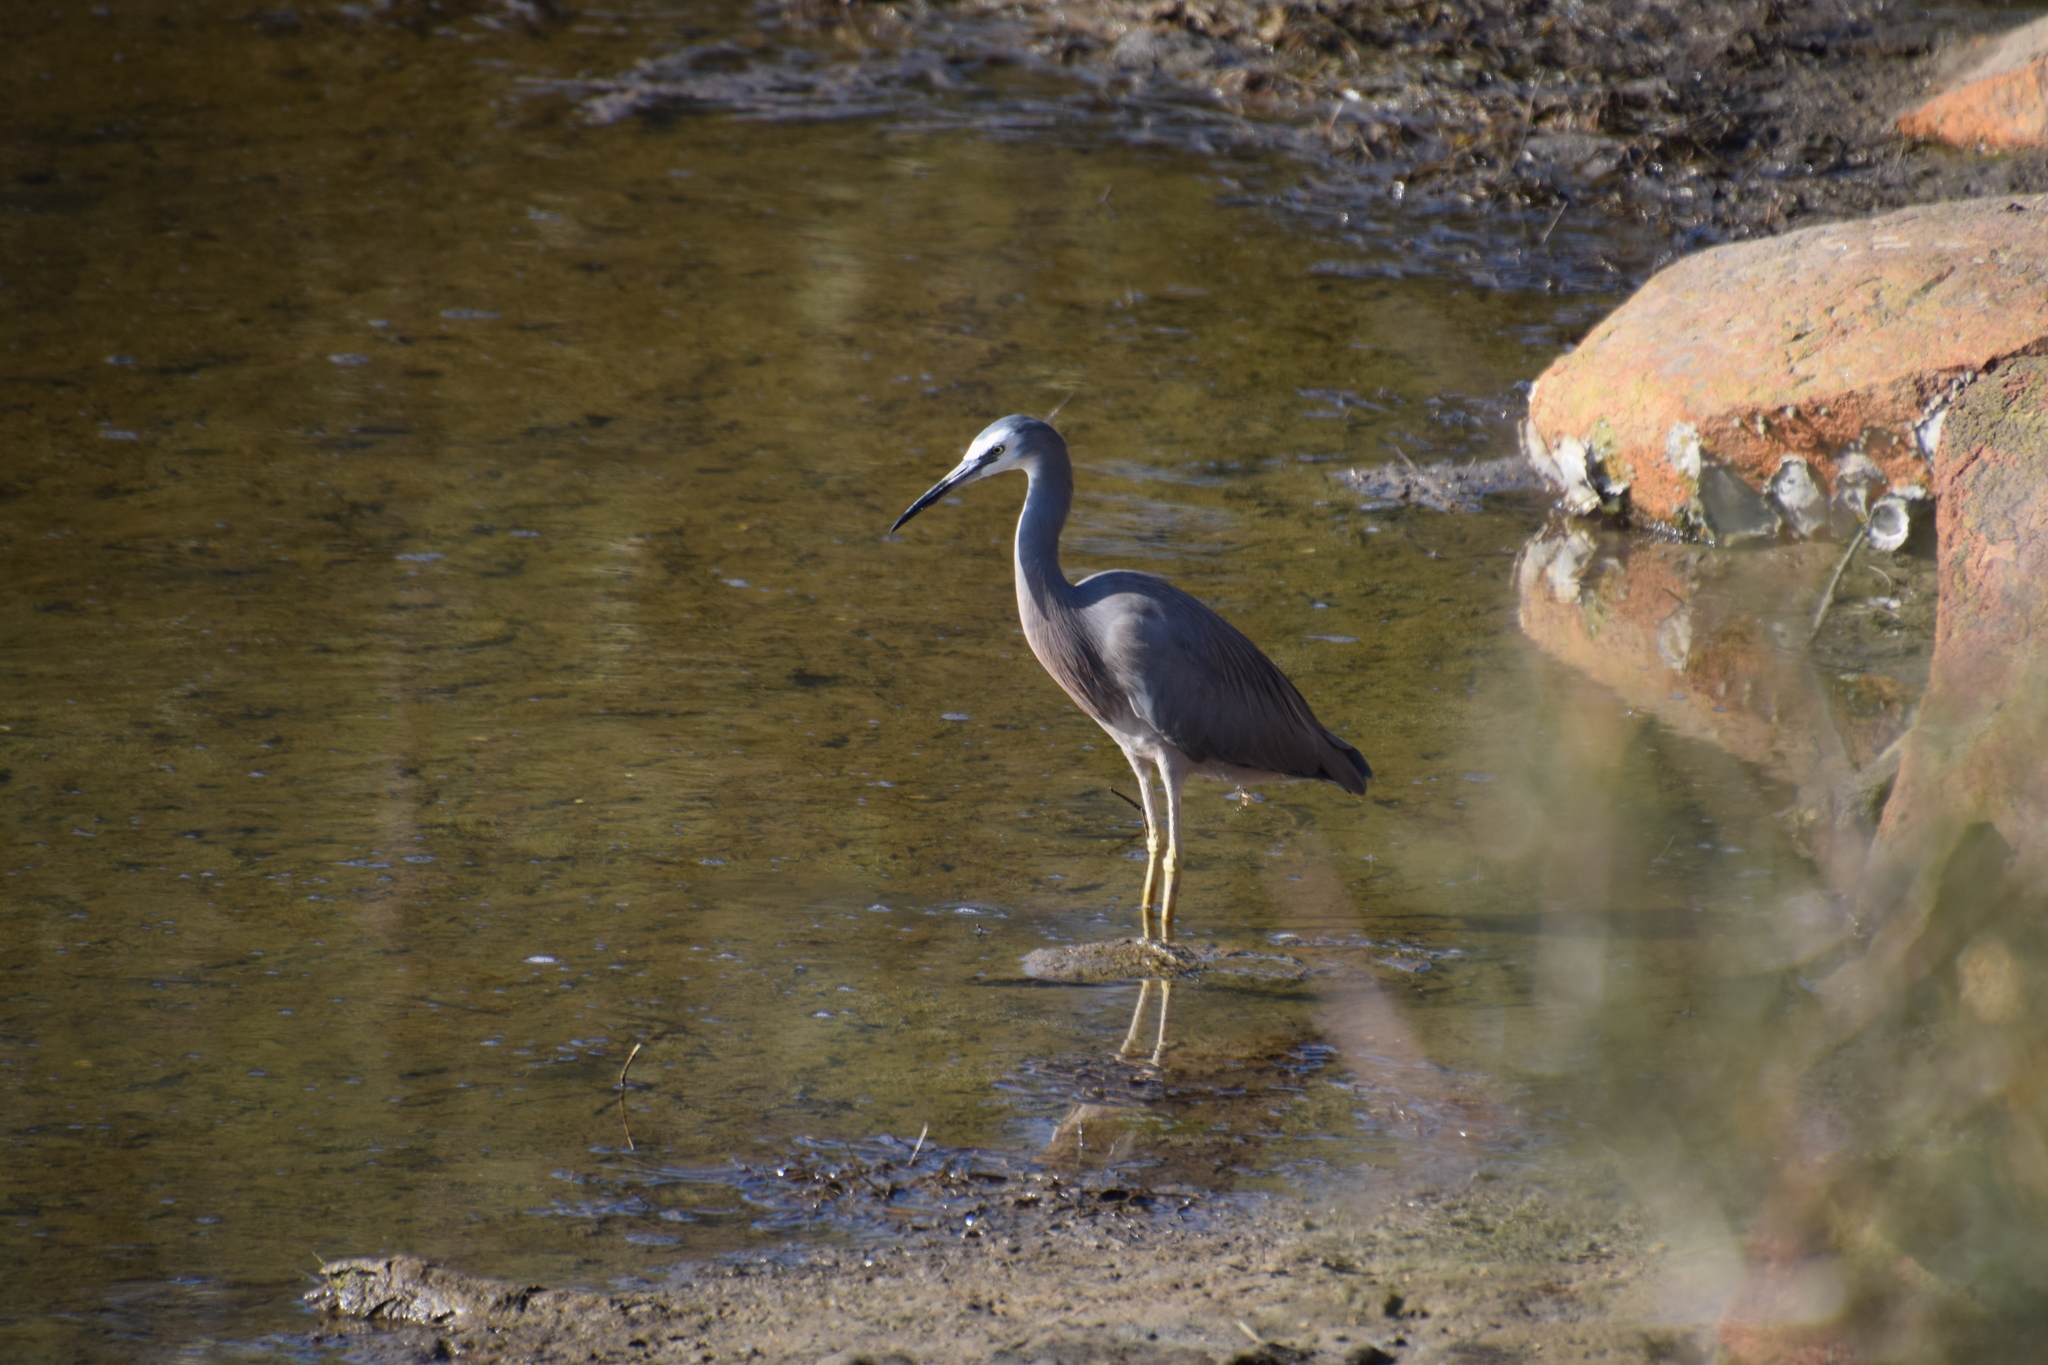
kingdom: Animalia
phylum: Chordata
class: Aves
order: Pelecaniformes
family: Ardeidae
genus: Egretta
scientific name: Egretta novaehollandiae
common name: White-faced heron
